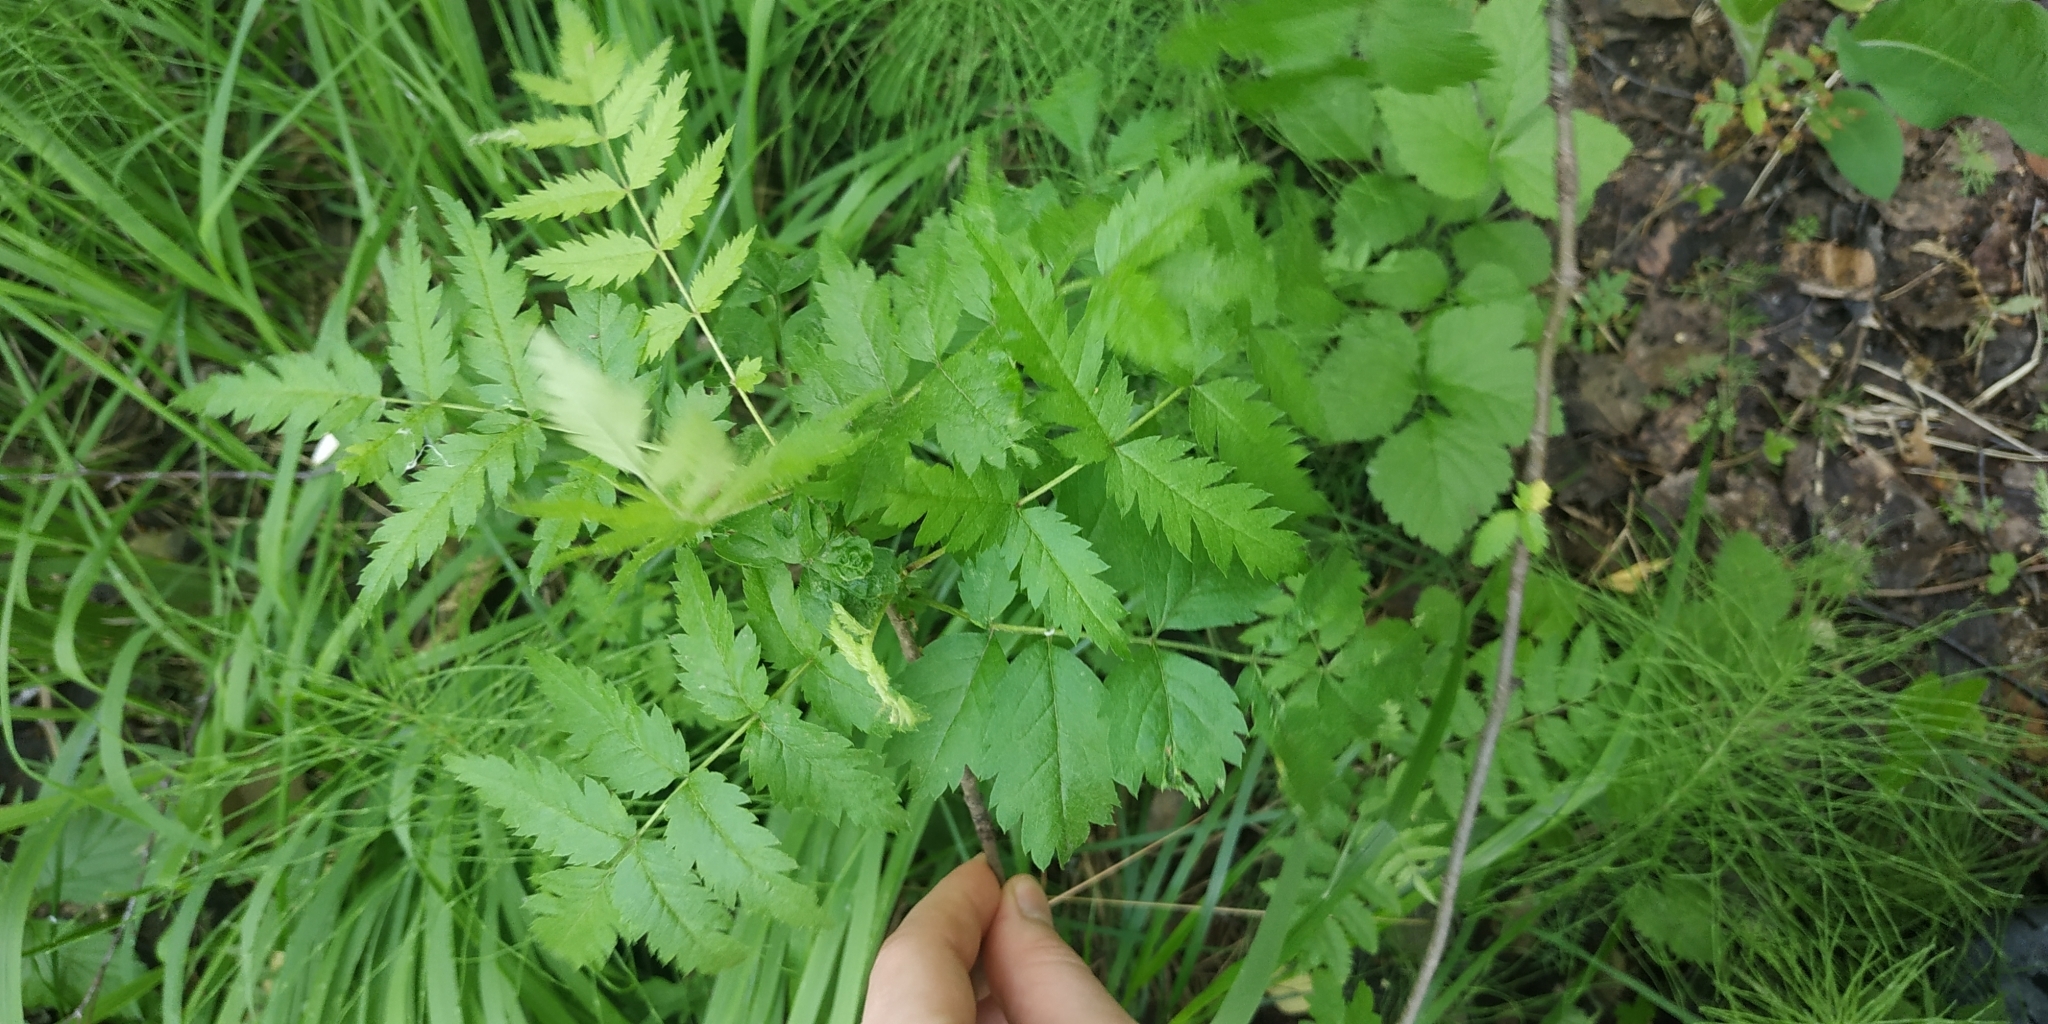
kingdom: Plantae
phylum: Tracheophyta
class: Magnoliopsida
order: Rosales
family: Rosaceae
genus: Sorbus
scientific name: Sorbus aucuparia
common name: Rowan
